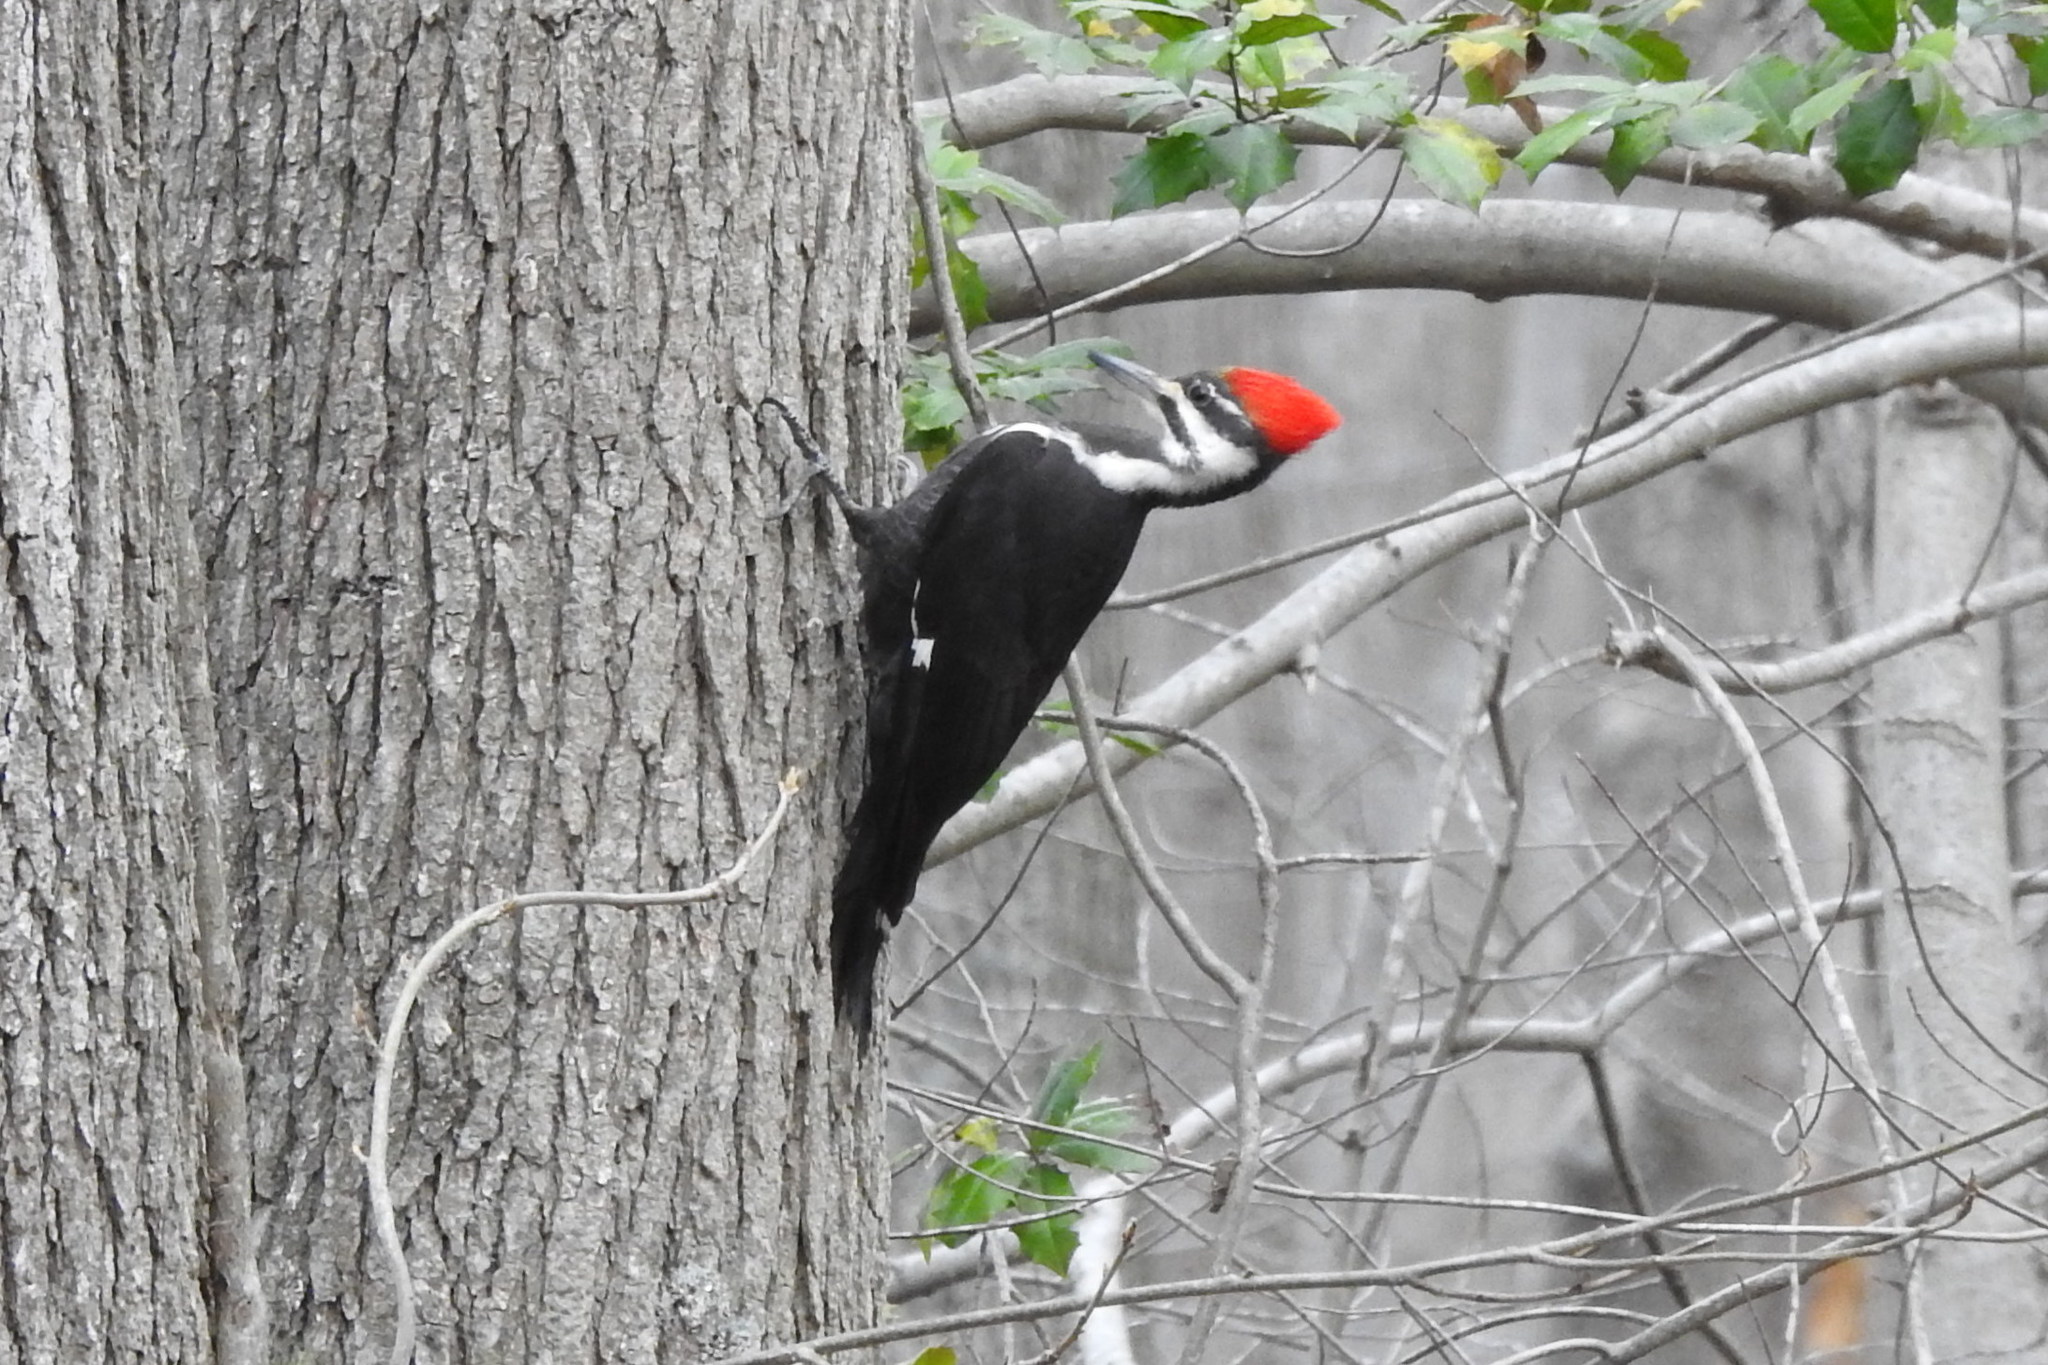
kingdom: Animalia
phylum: Chordata
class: Aves
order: Piciformes
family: Picidae
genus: Dryocopus
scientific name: Dryocopus pileatus
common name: Pileated woodpecker
